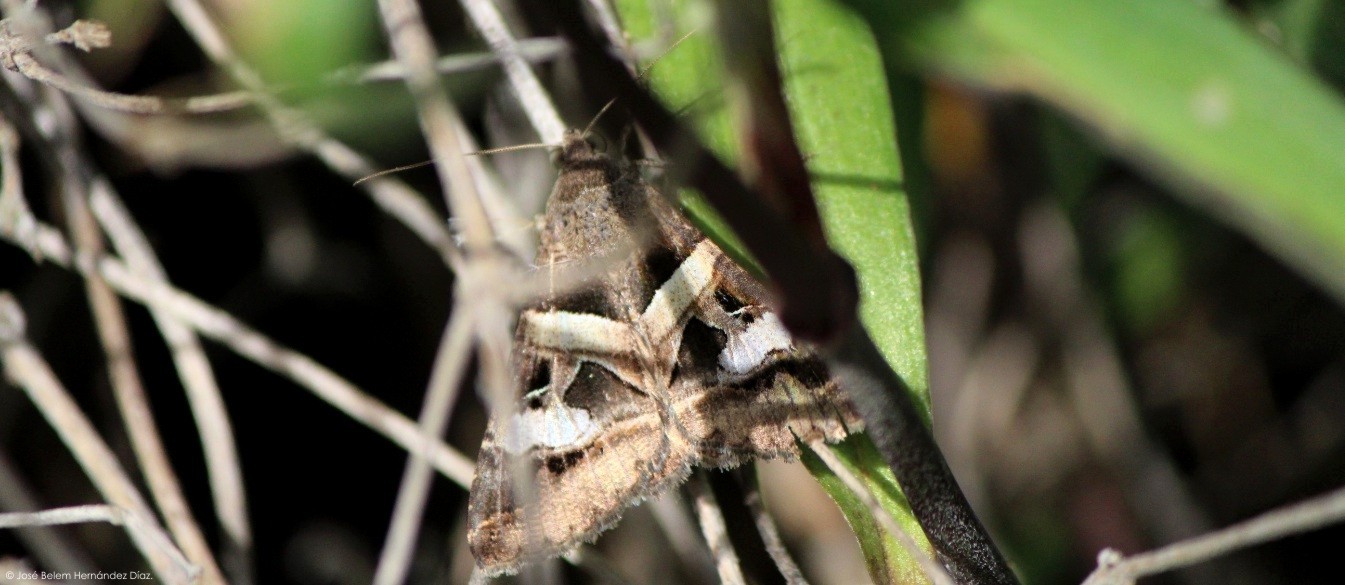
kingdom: Animalia
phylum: Arthropoda
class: Insecta
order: Lepidoptera
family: Erebidae
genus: Melipotis
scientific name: Melipotis indomita
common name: Moth
